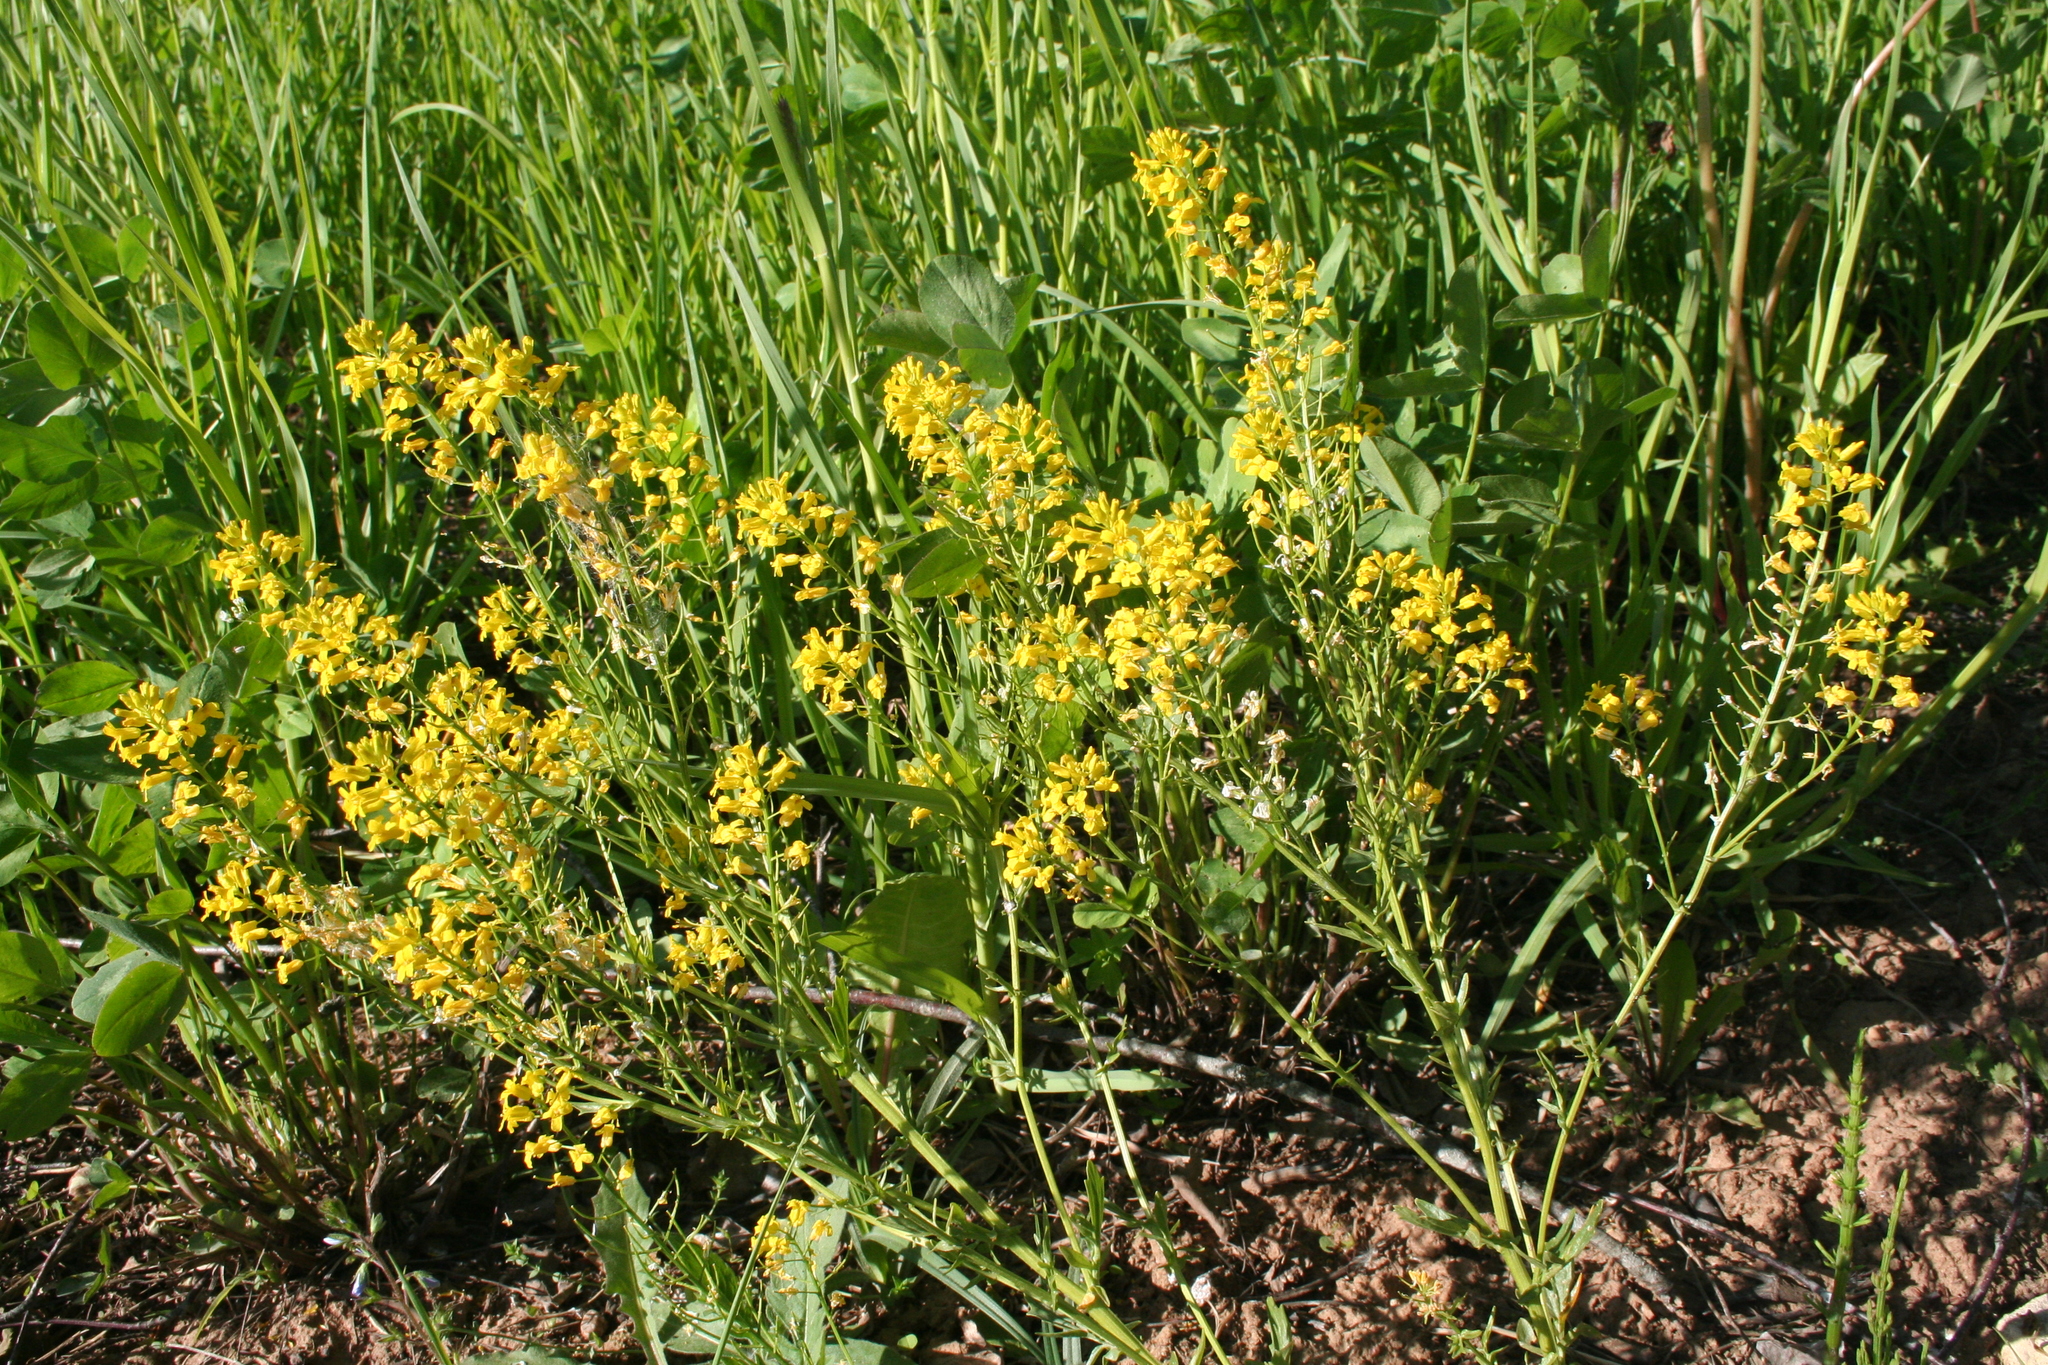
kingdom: Plantae
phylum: Tracheophyta
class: Magnoliopsida
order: Brassicales
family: Brassicaceae
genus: Barbarea
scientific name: Barbarea vulgaris
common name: Cressy-greens
